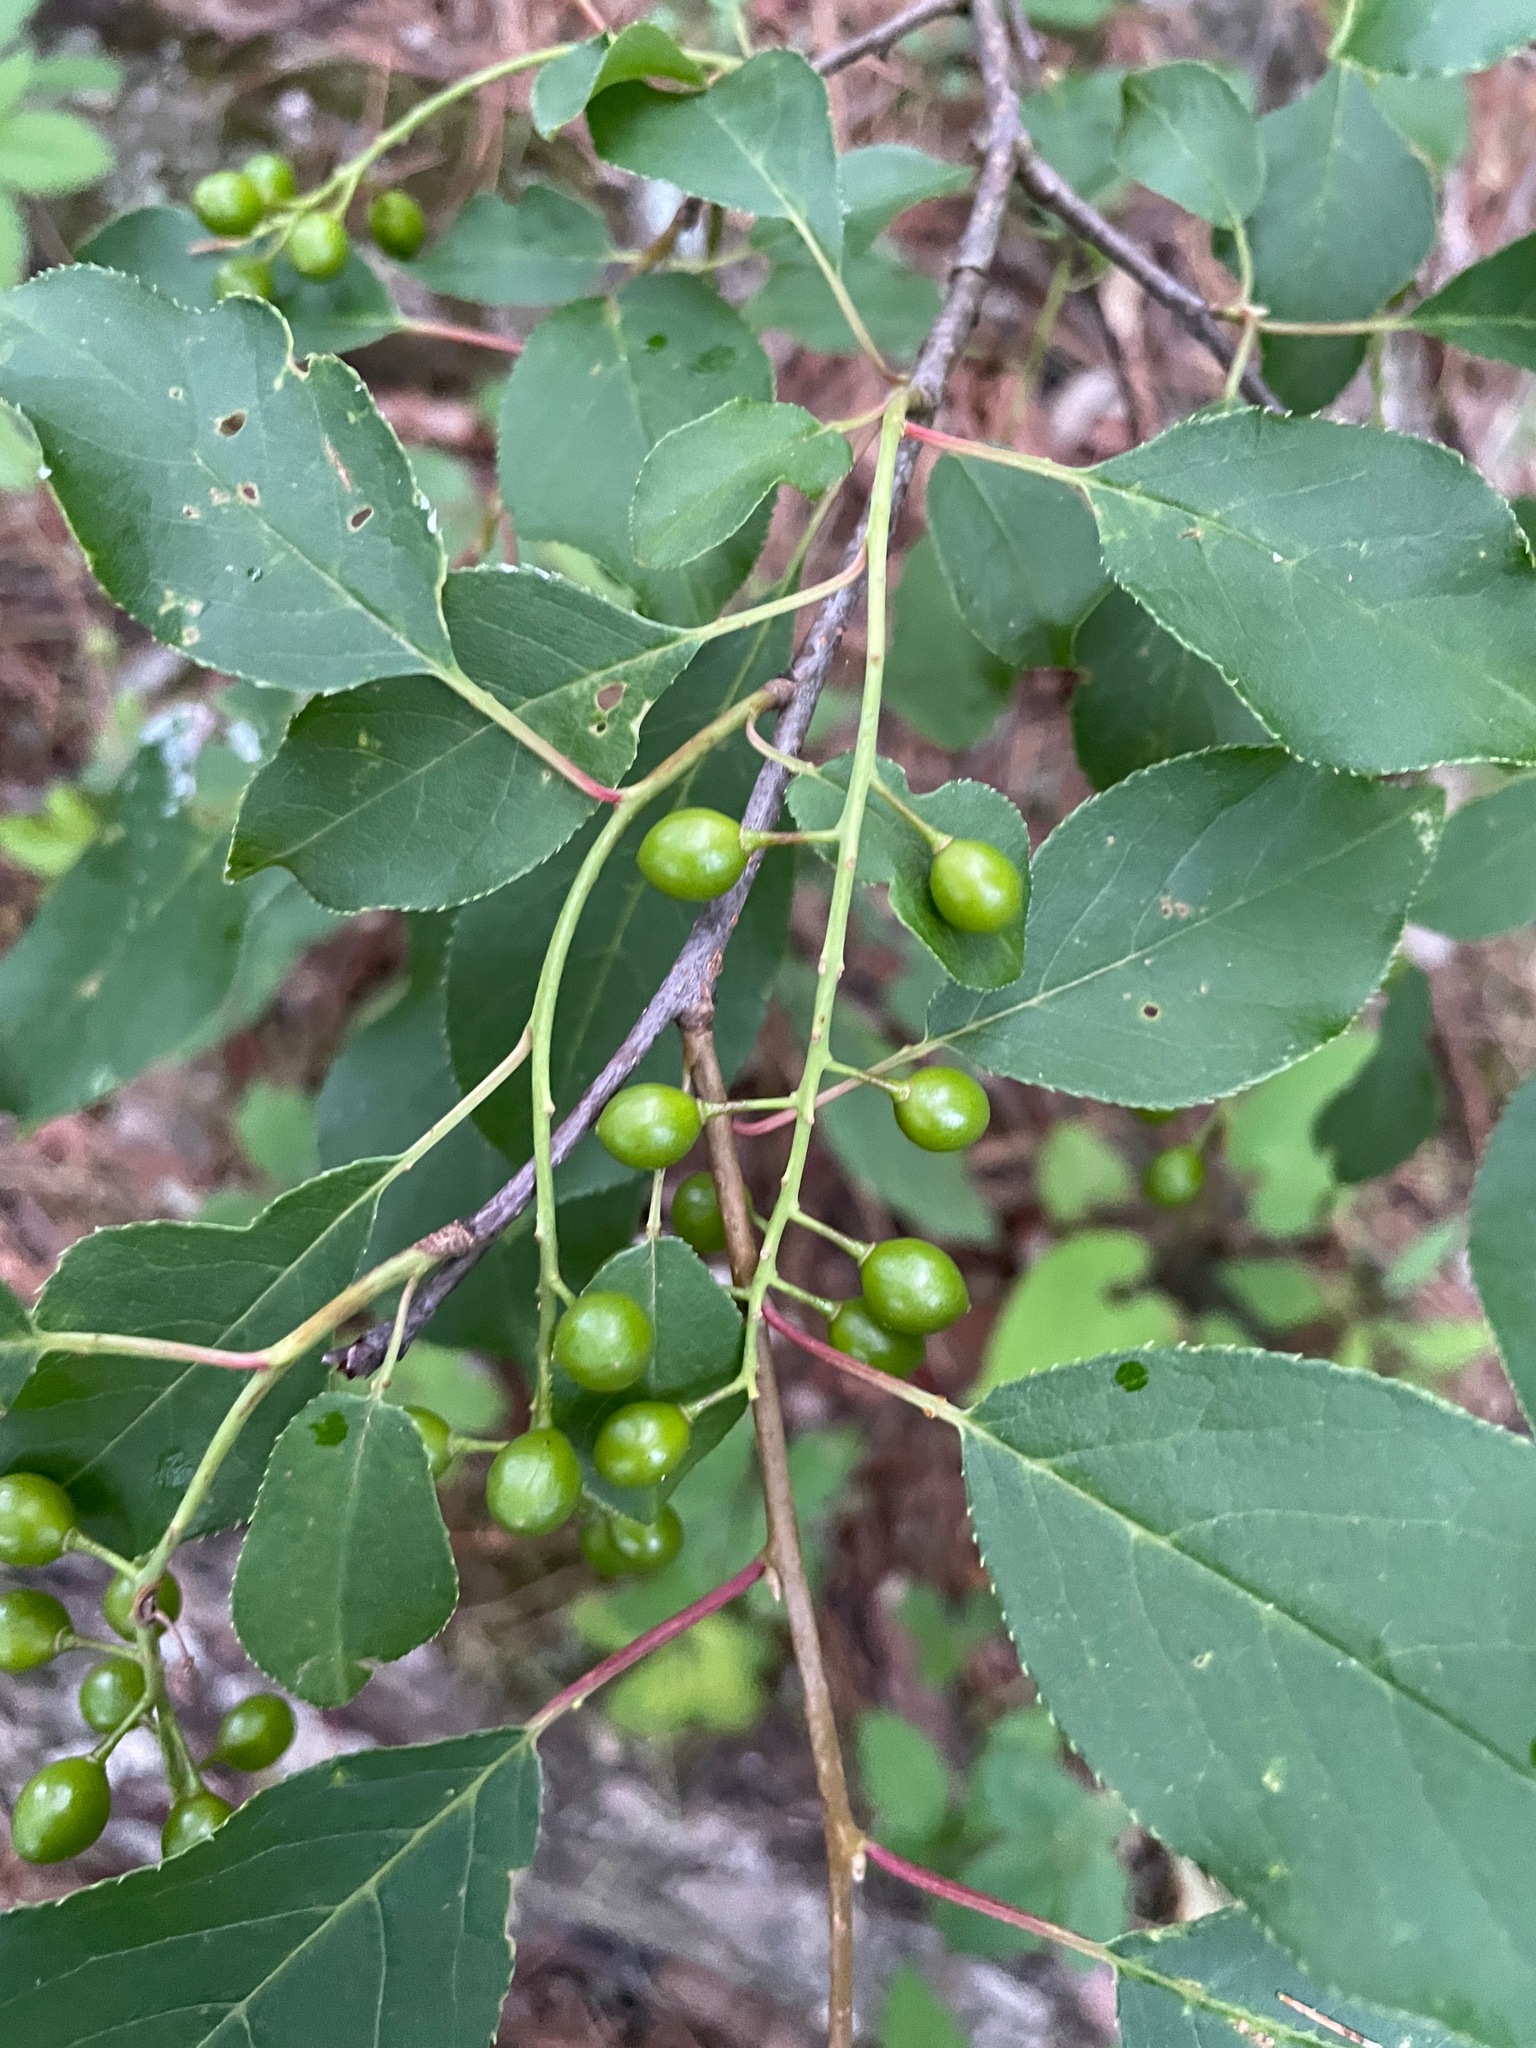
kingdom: Plantae
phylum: Tracheophyta
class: Magnoliopsida
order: Rosales
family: Rosaceae
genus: Prunus
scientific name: Prunus virginiana
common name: Chokecherry
